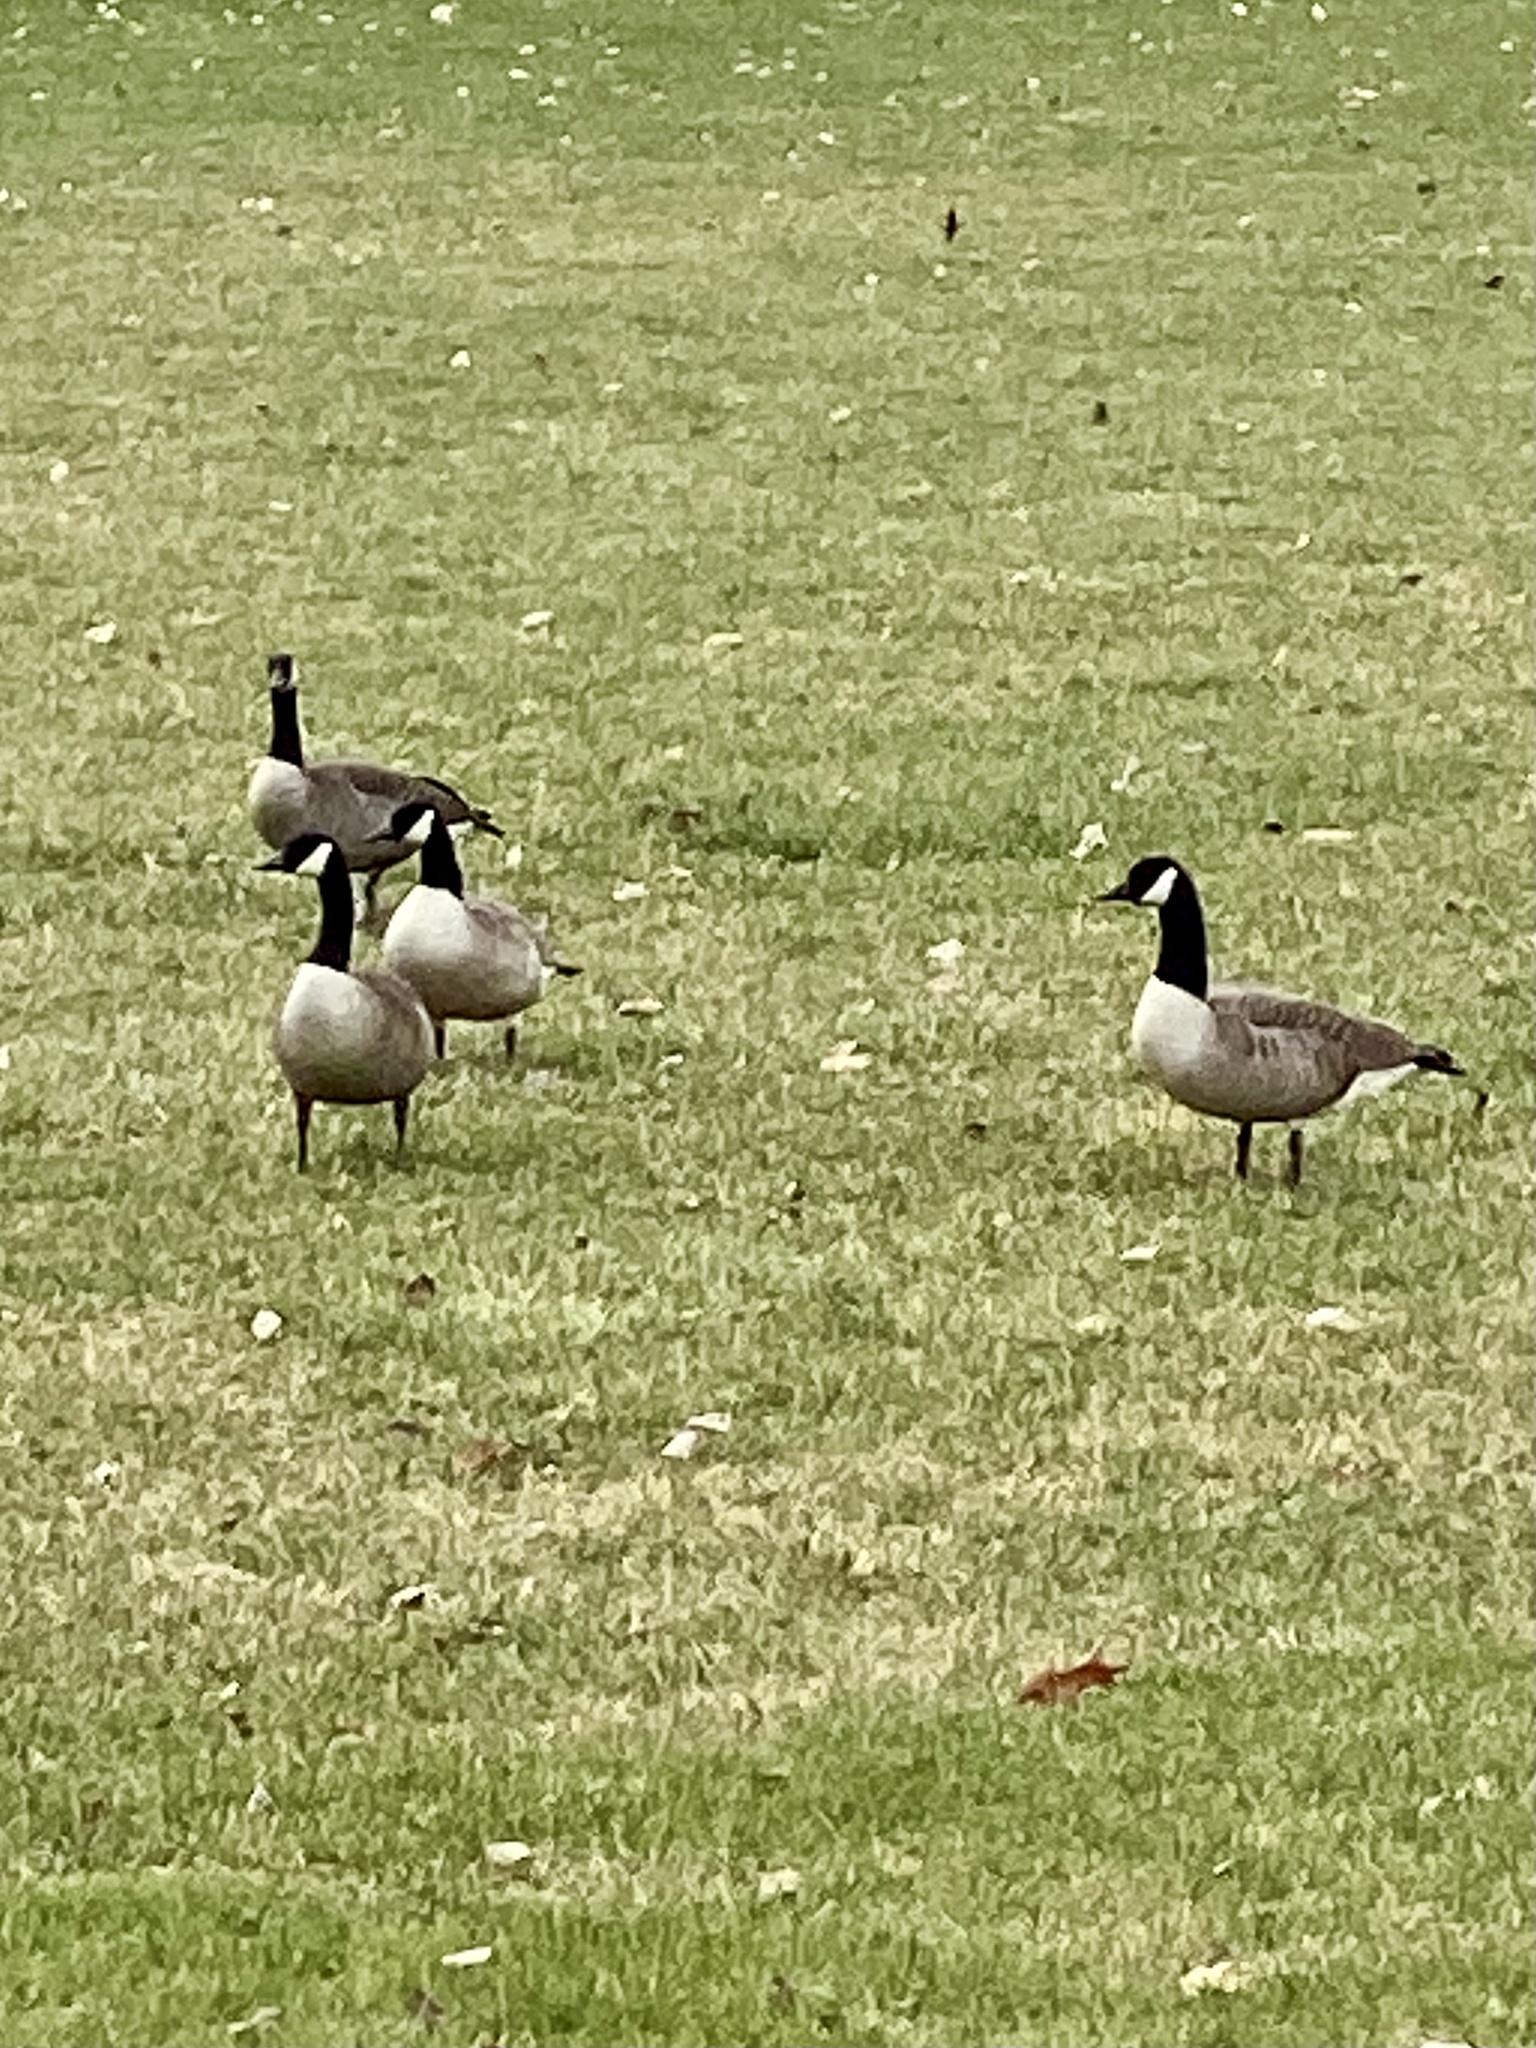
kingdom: Animalia
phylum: Chordata
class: Aves
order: Anseriformes
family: Anatidae
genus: Branta
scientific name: Branta canadensis
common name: Canada goose
